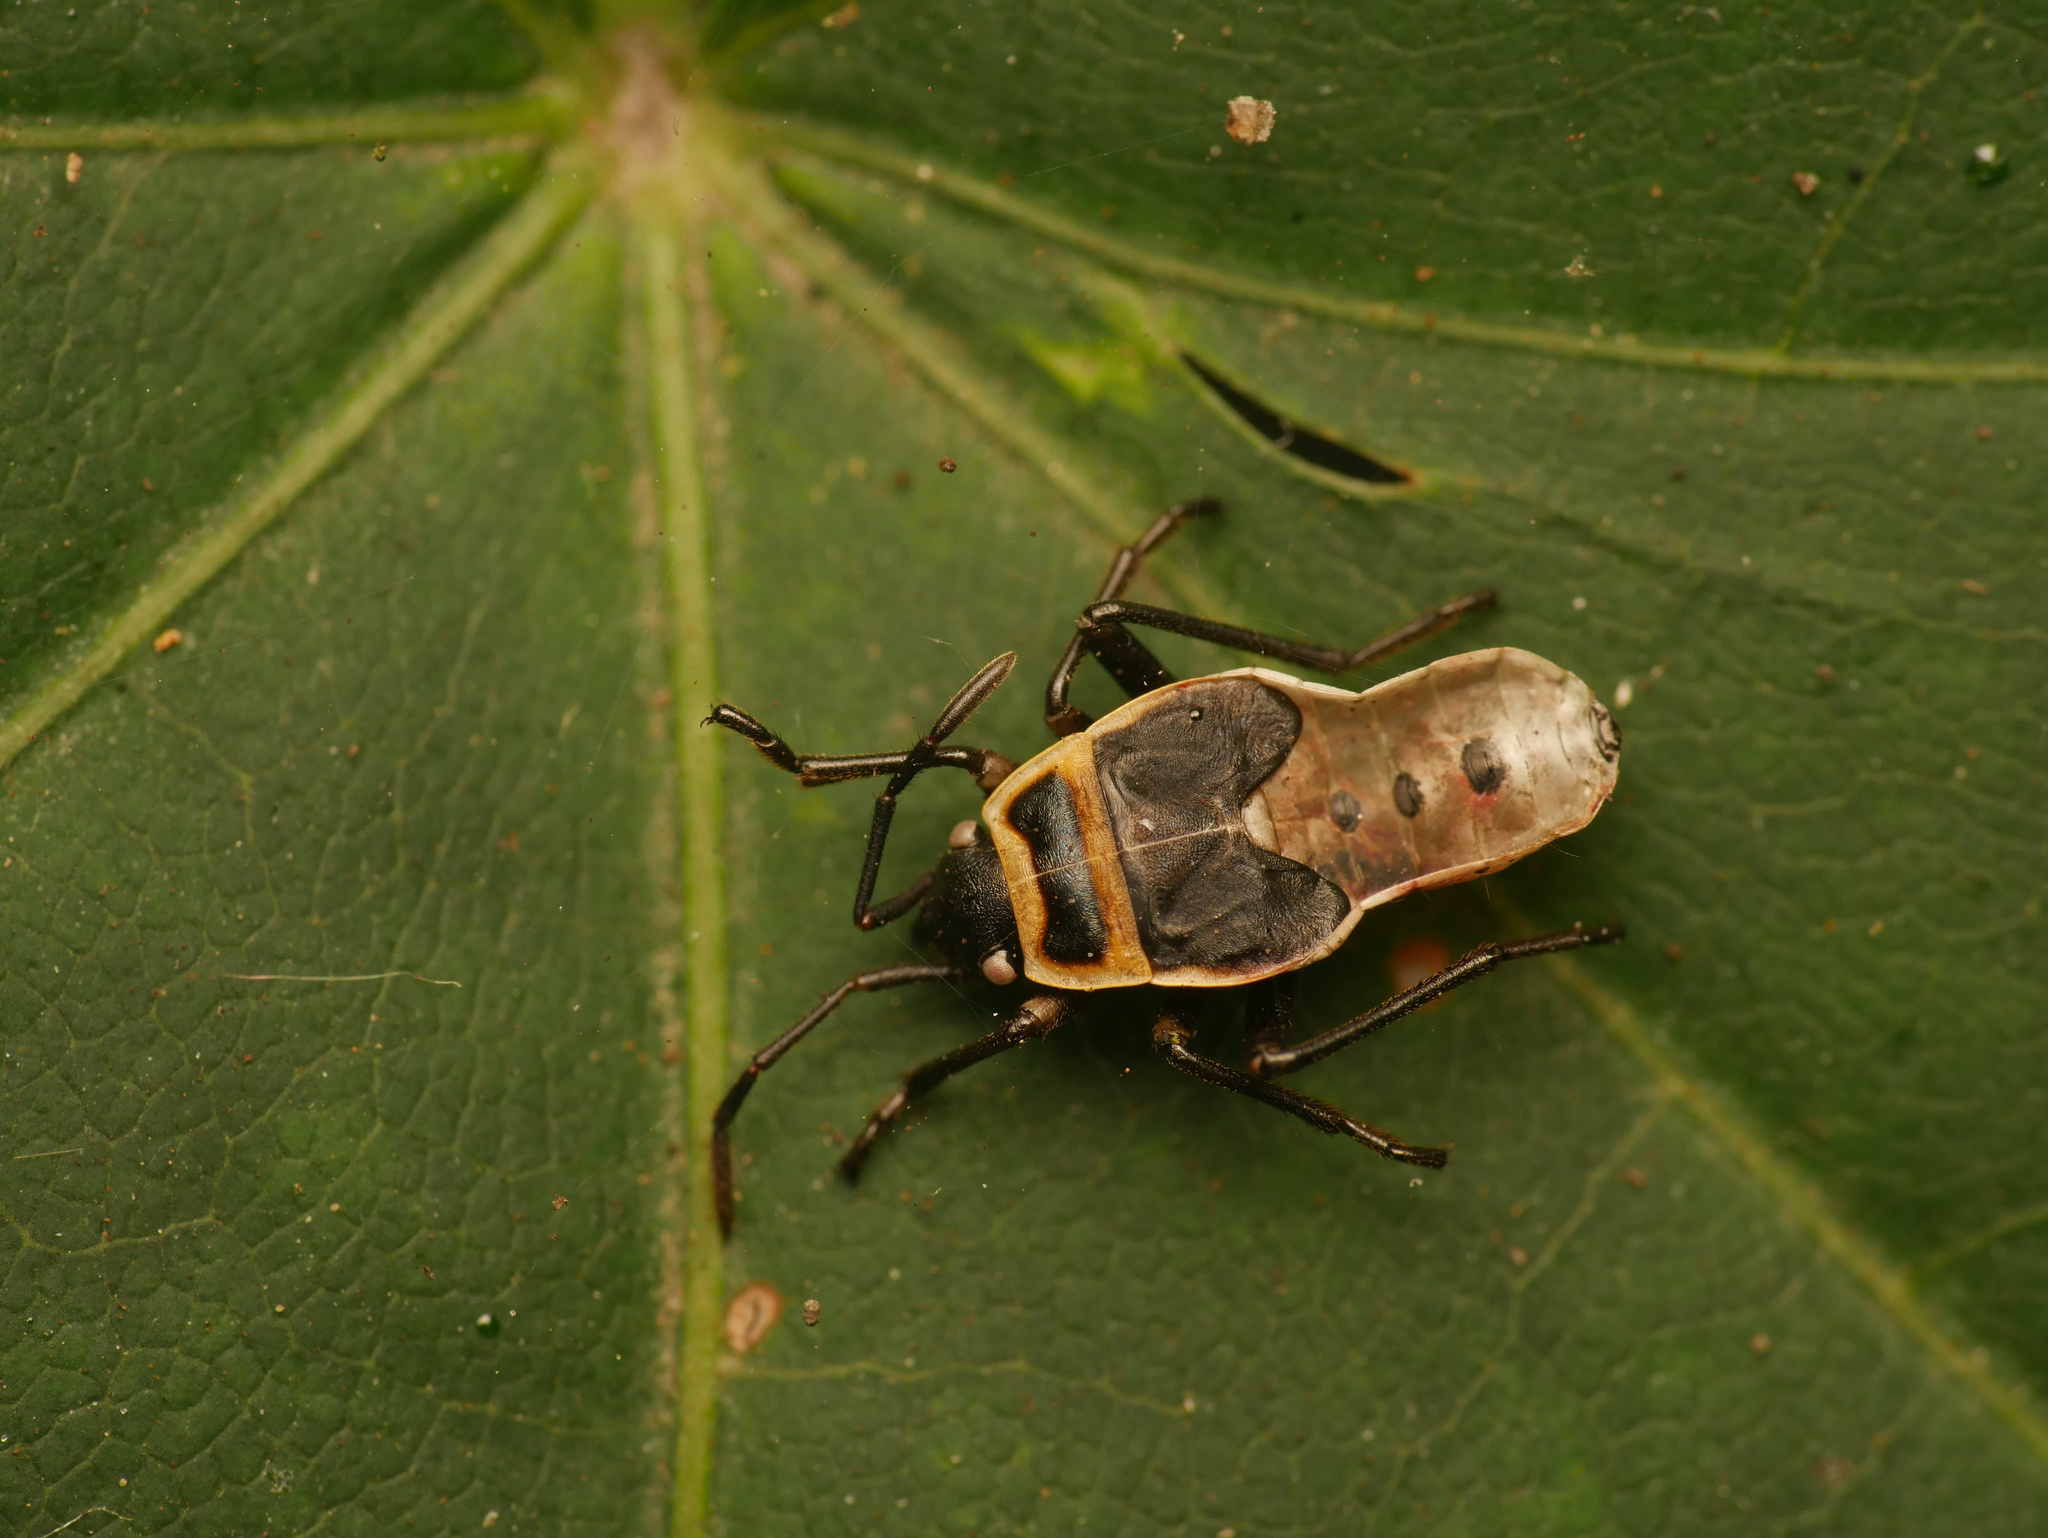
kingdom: Animalia
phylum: Arthropoda
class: Insecta
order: Hemiptera
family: Pyrrhocoridae
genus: Pyrrhocoris
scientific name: Pyrrhocoris apterus
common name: Firebug
